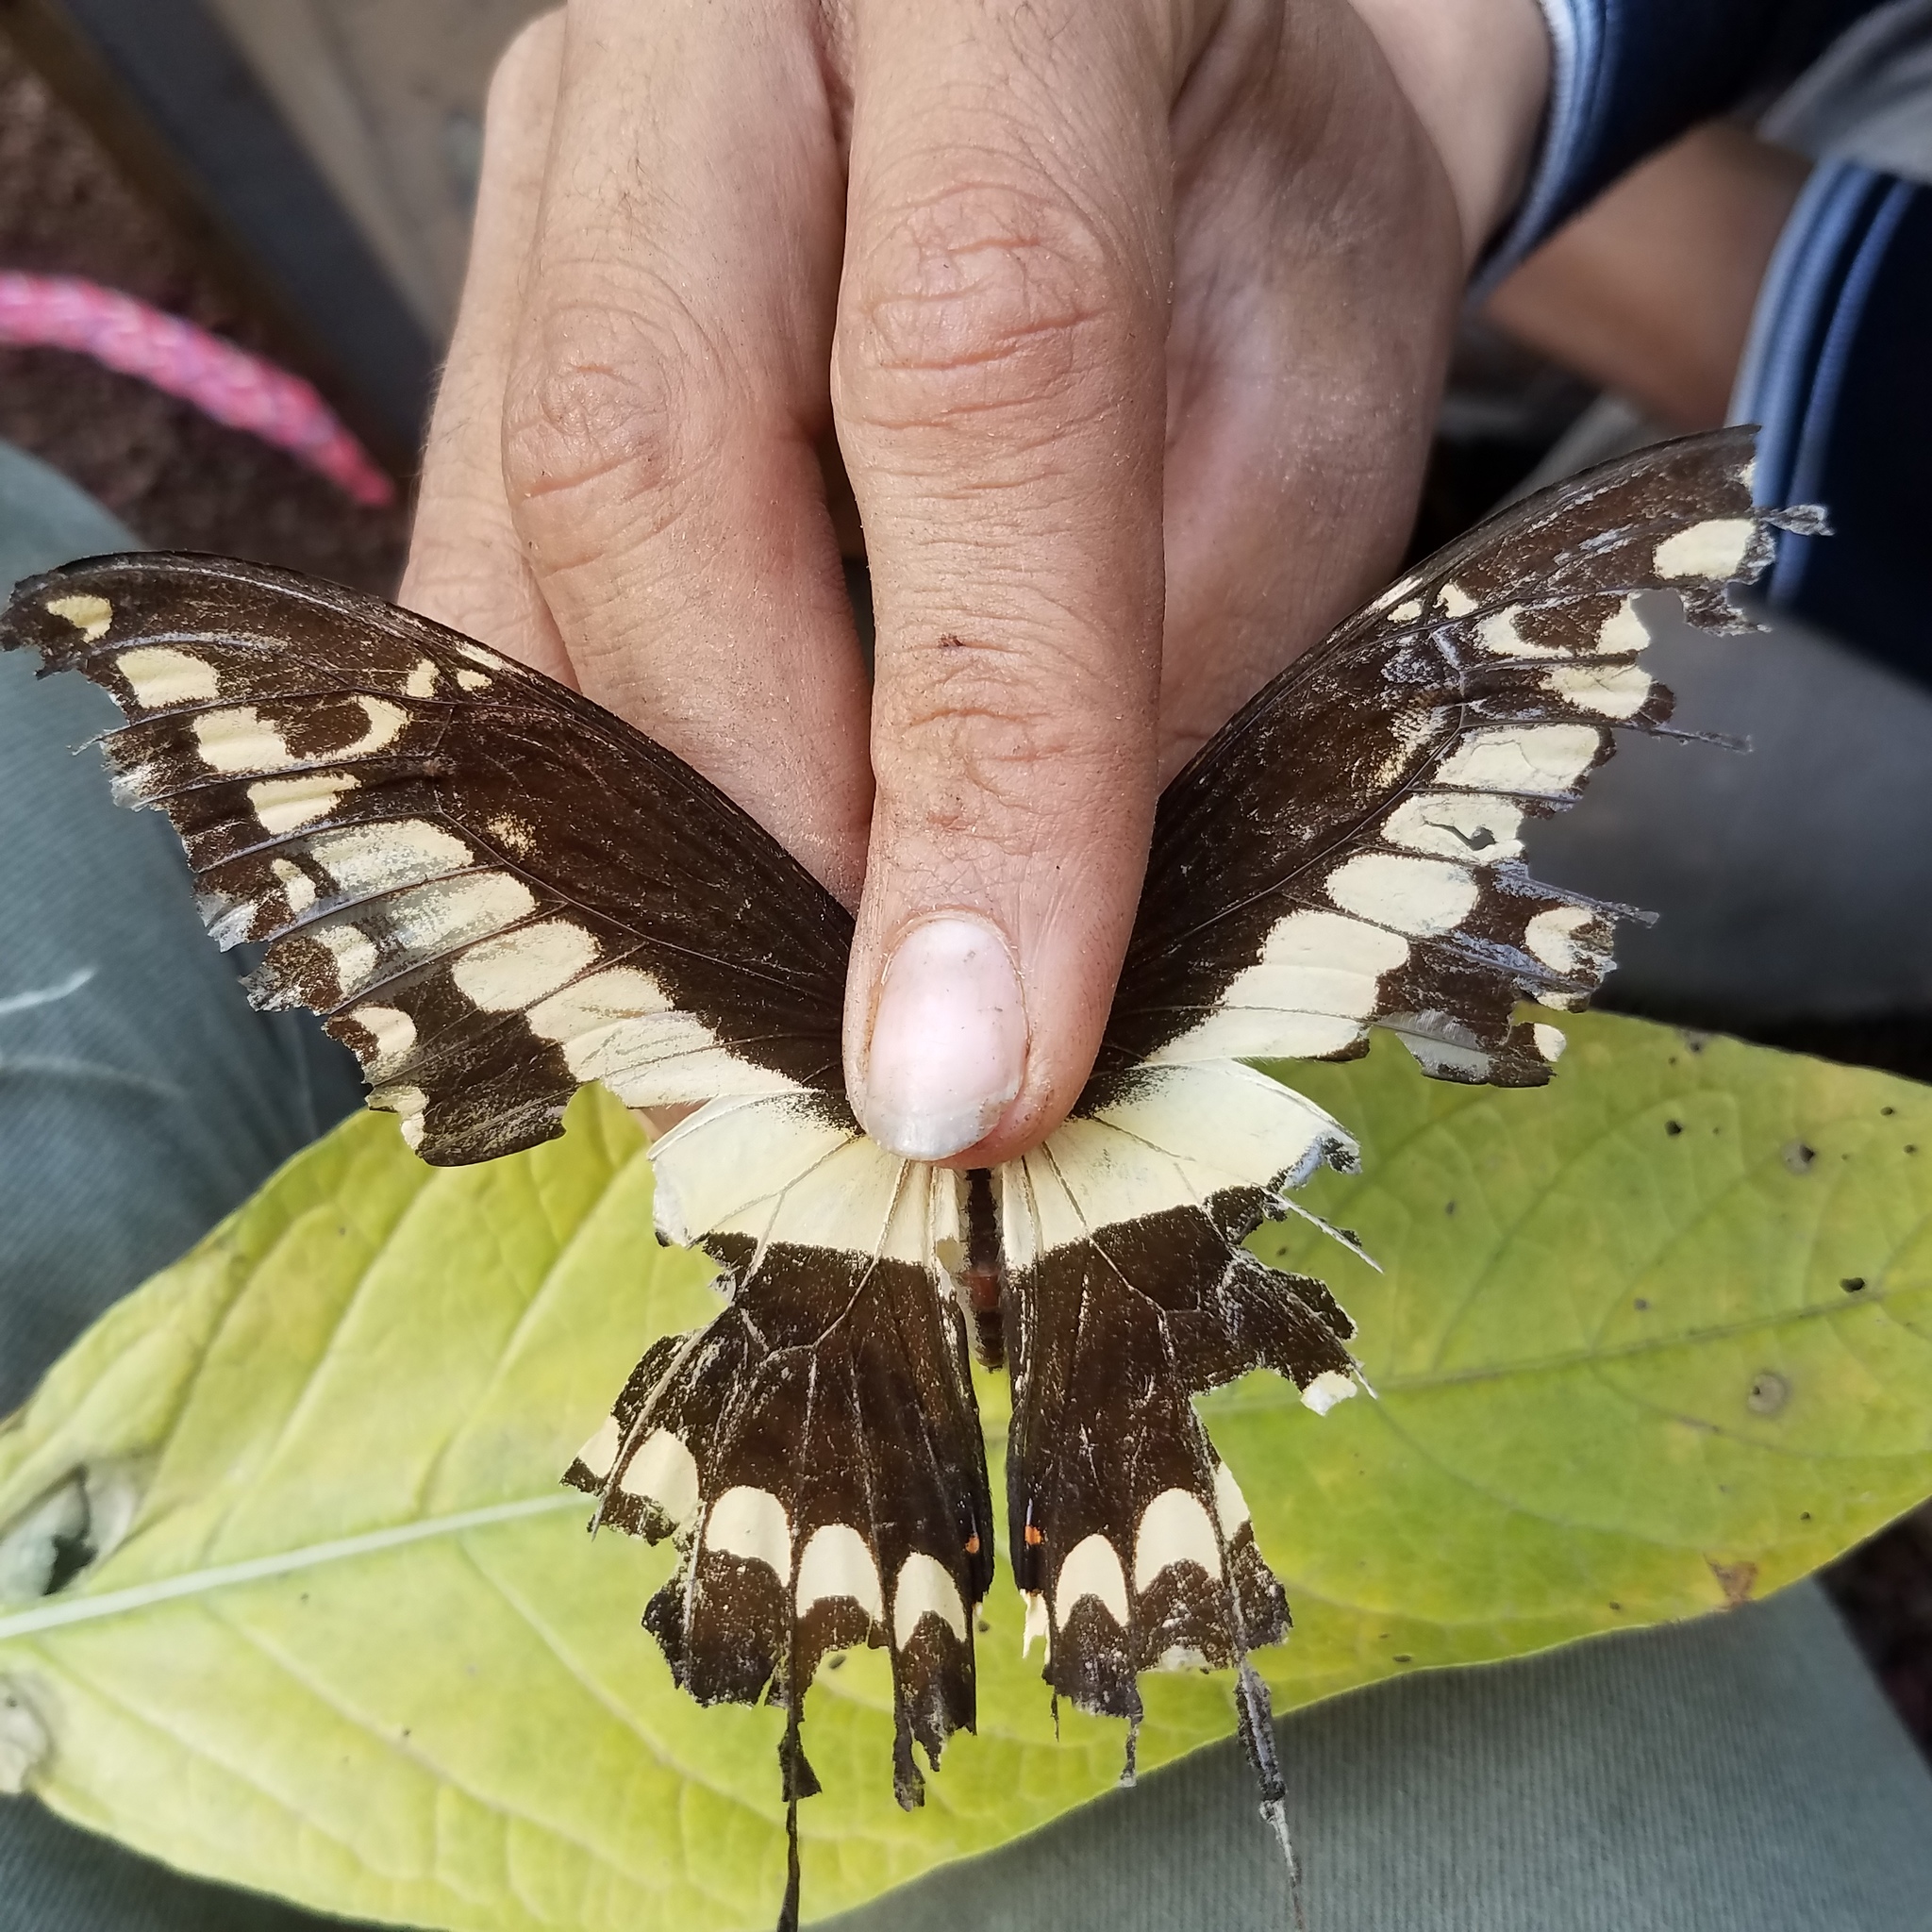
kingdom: Animalia
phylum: Arthropoda
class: Insecta
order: Lepidoptera
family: Papilionidae
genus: Papilio
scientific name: Papilio thoas
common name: King swallowtail
